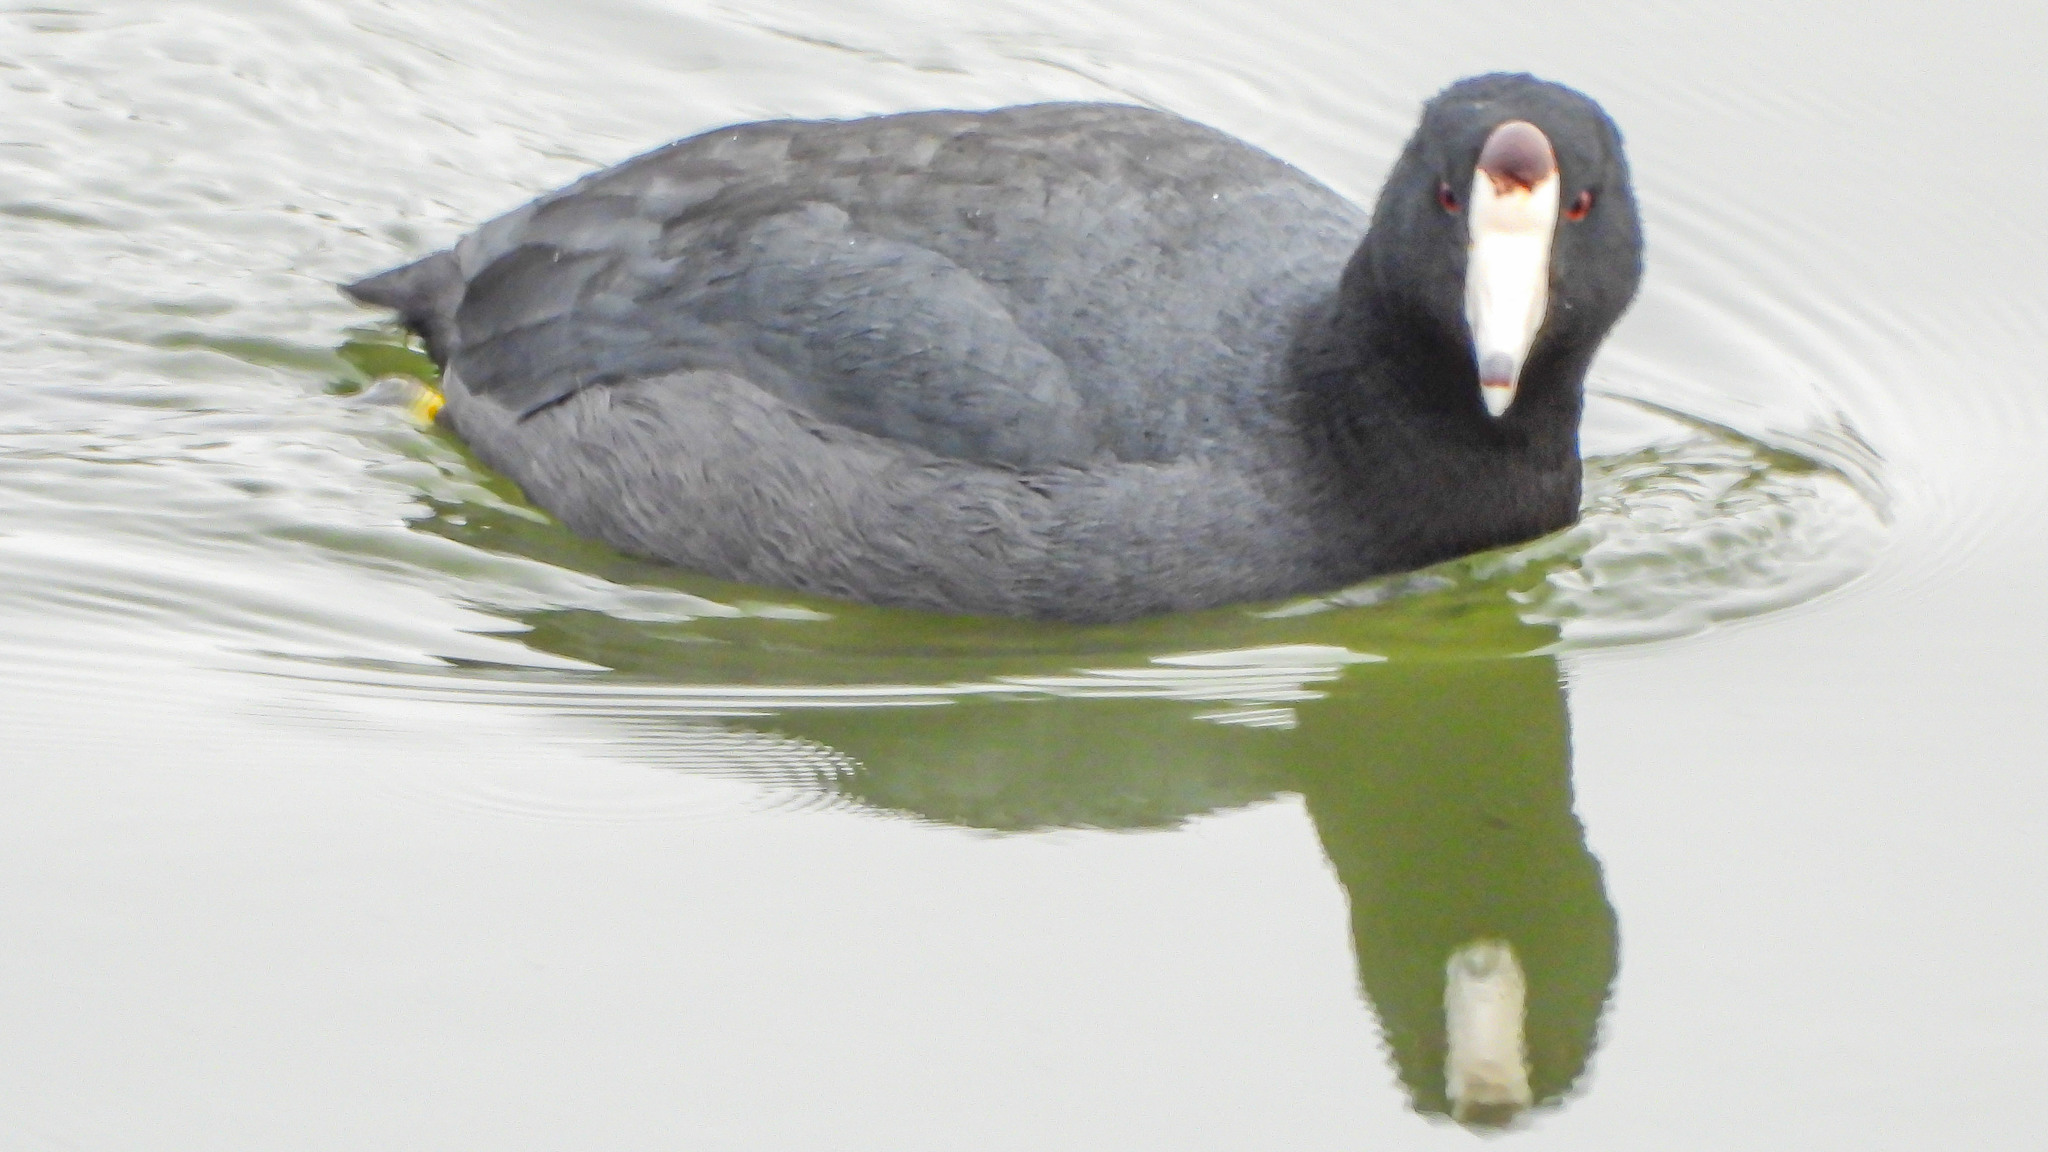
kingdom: Animalia
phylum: Chordata
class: Aves
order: Gruiformes
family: Rallidae
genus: Fulica
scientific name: Fulica americana
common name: American coot
